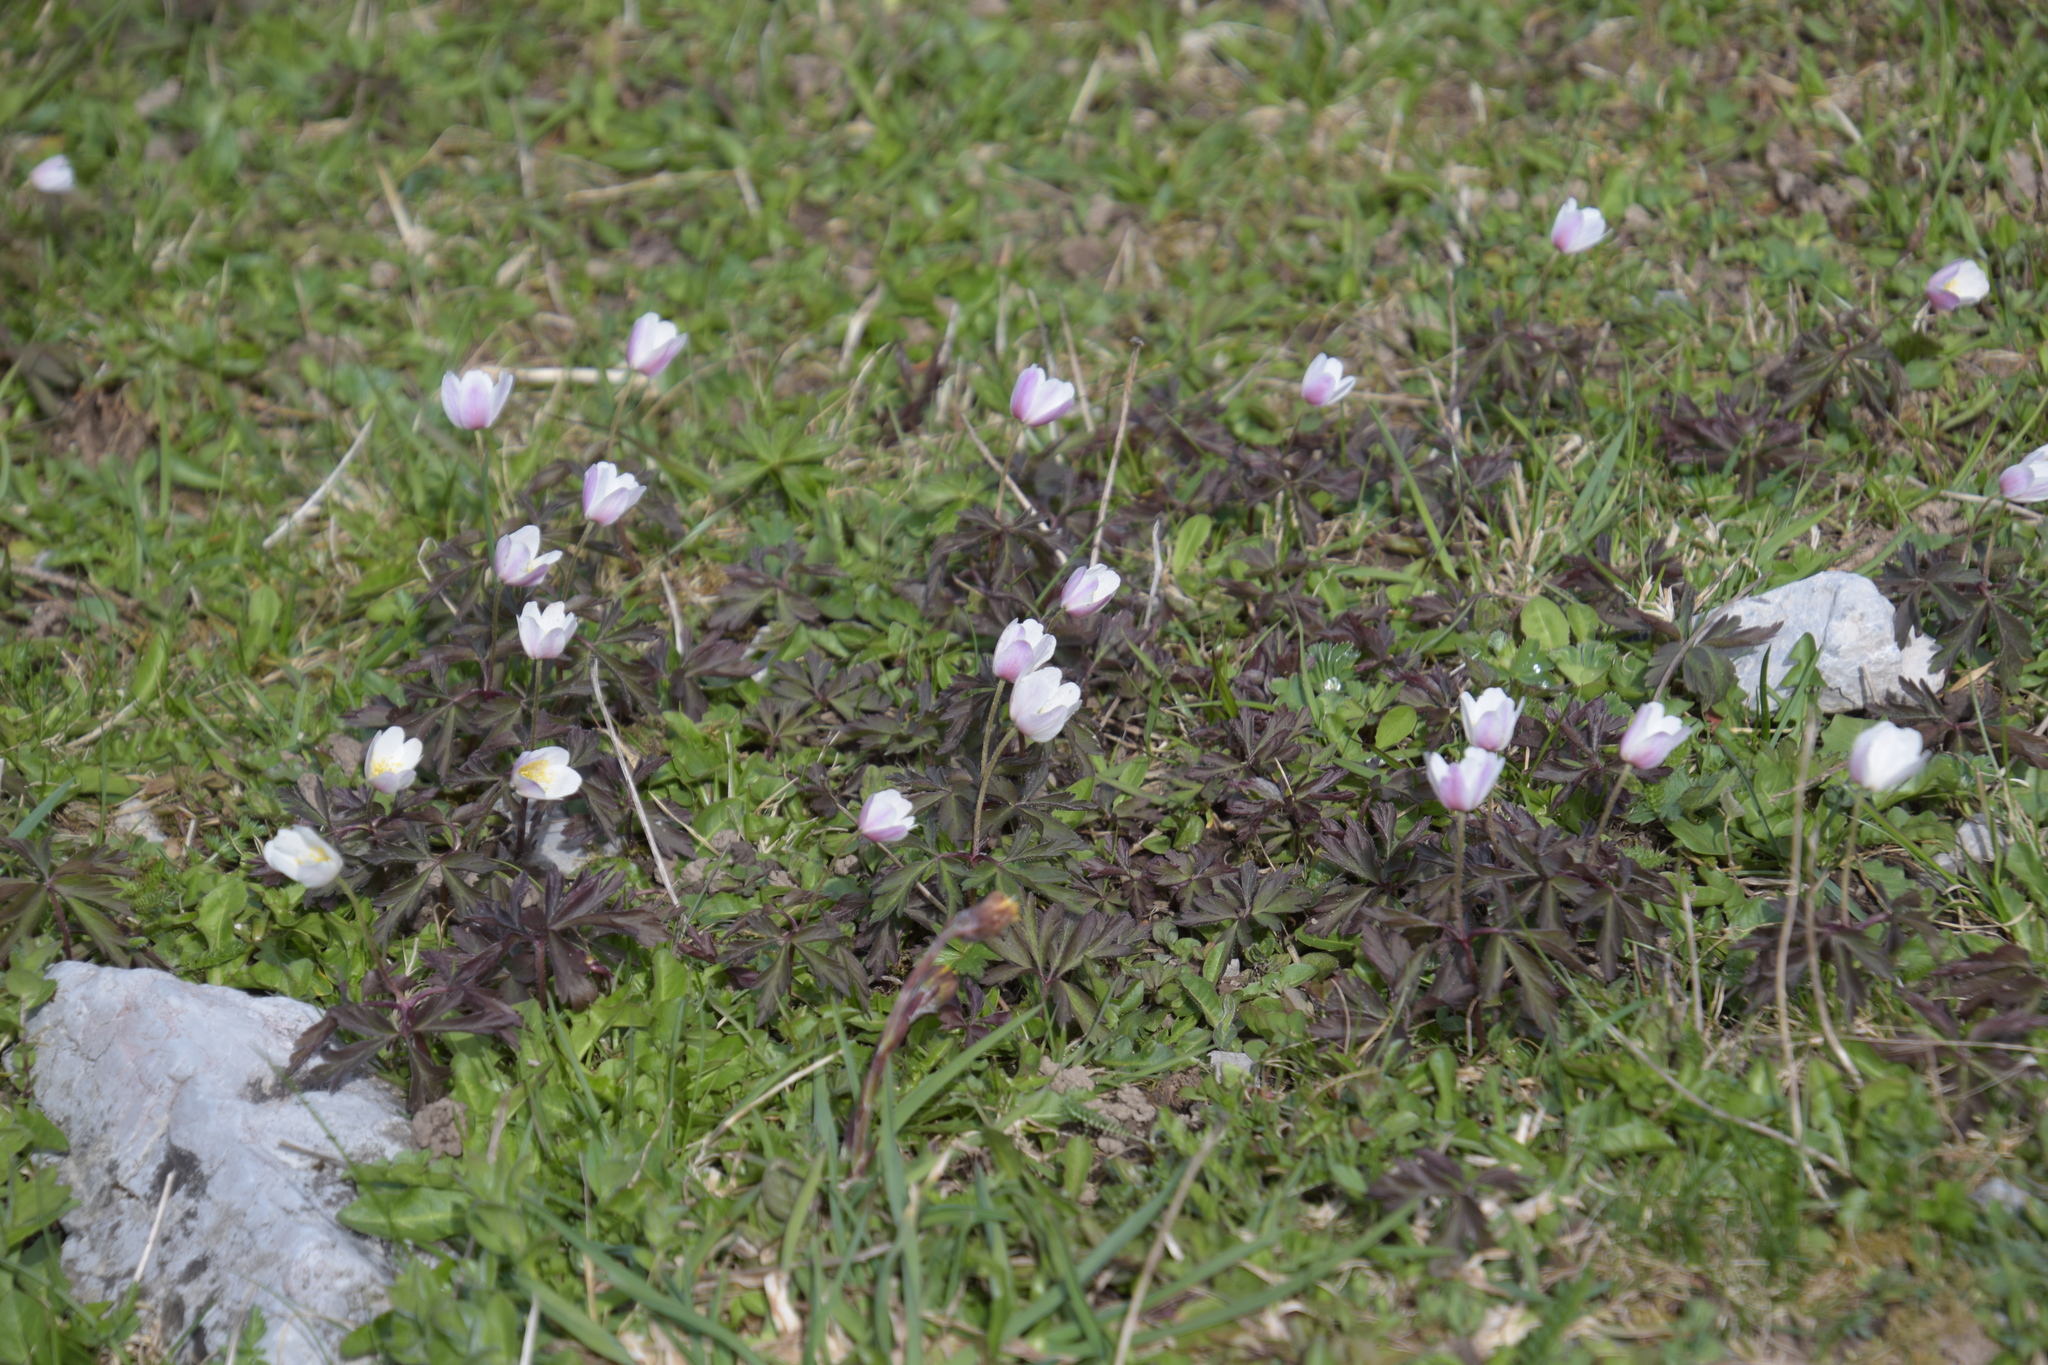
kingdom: Plantae
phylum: Tracheophyta
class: Magnoliopsida
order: Ranunculales
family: Ranunculaceae
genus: Anemone
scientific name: Anemone nemorosa
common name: Wood anemone
